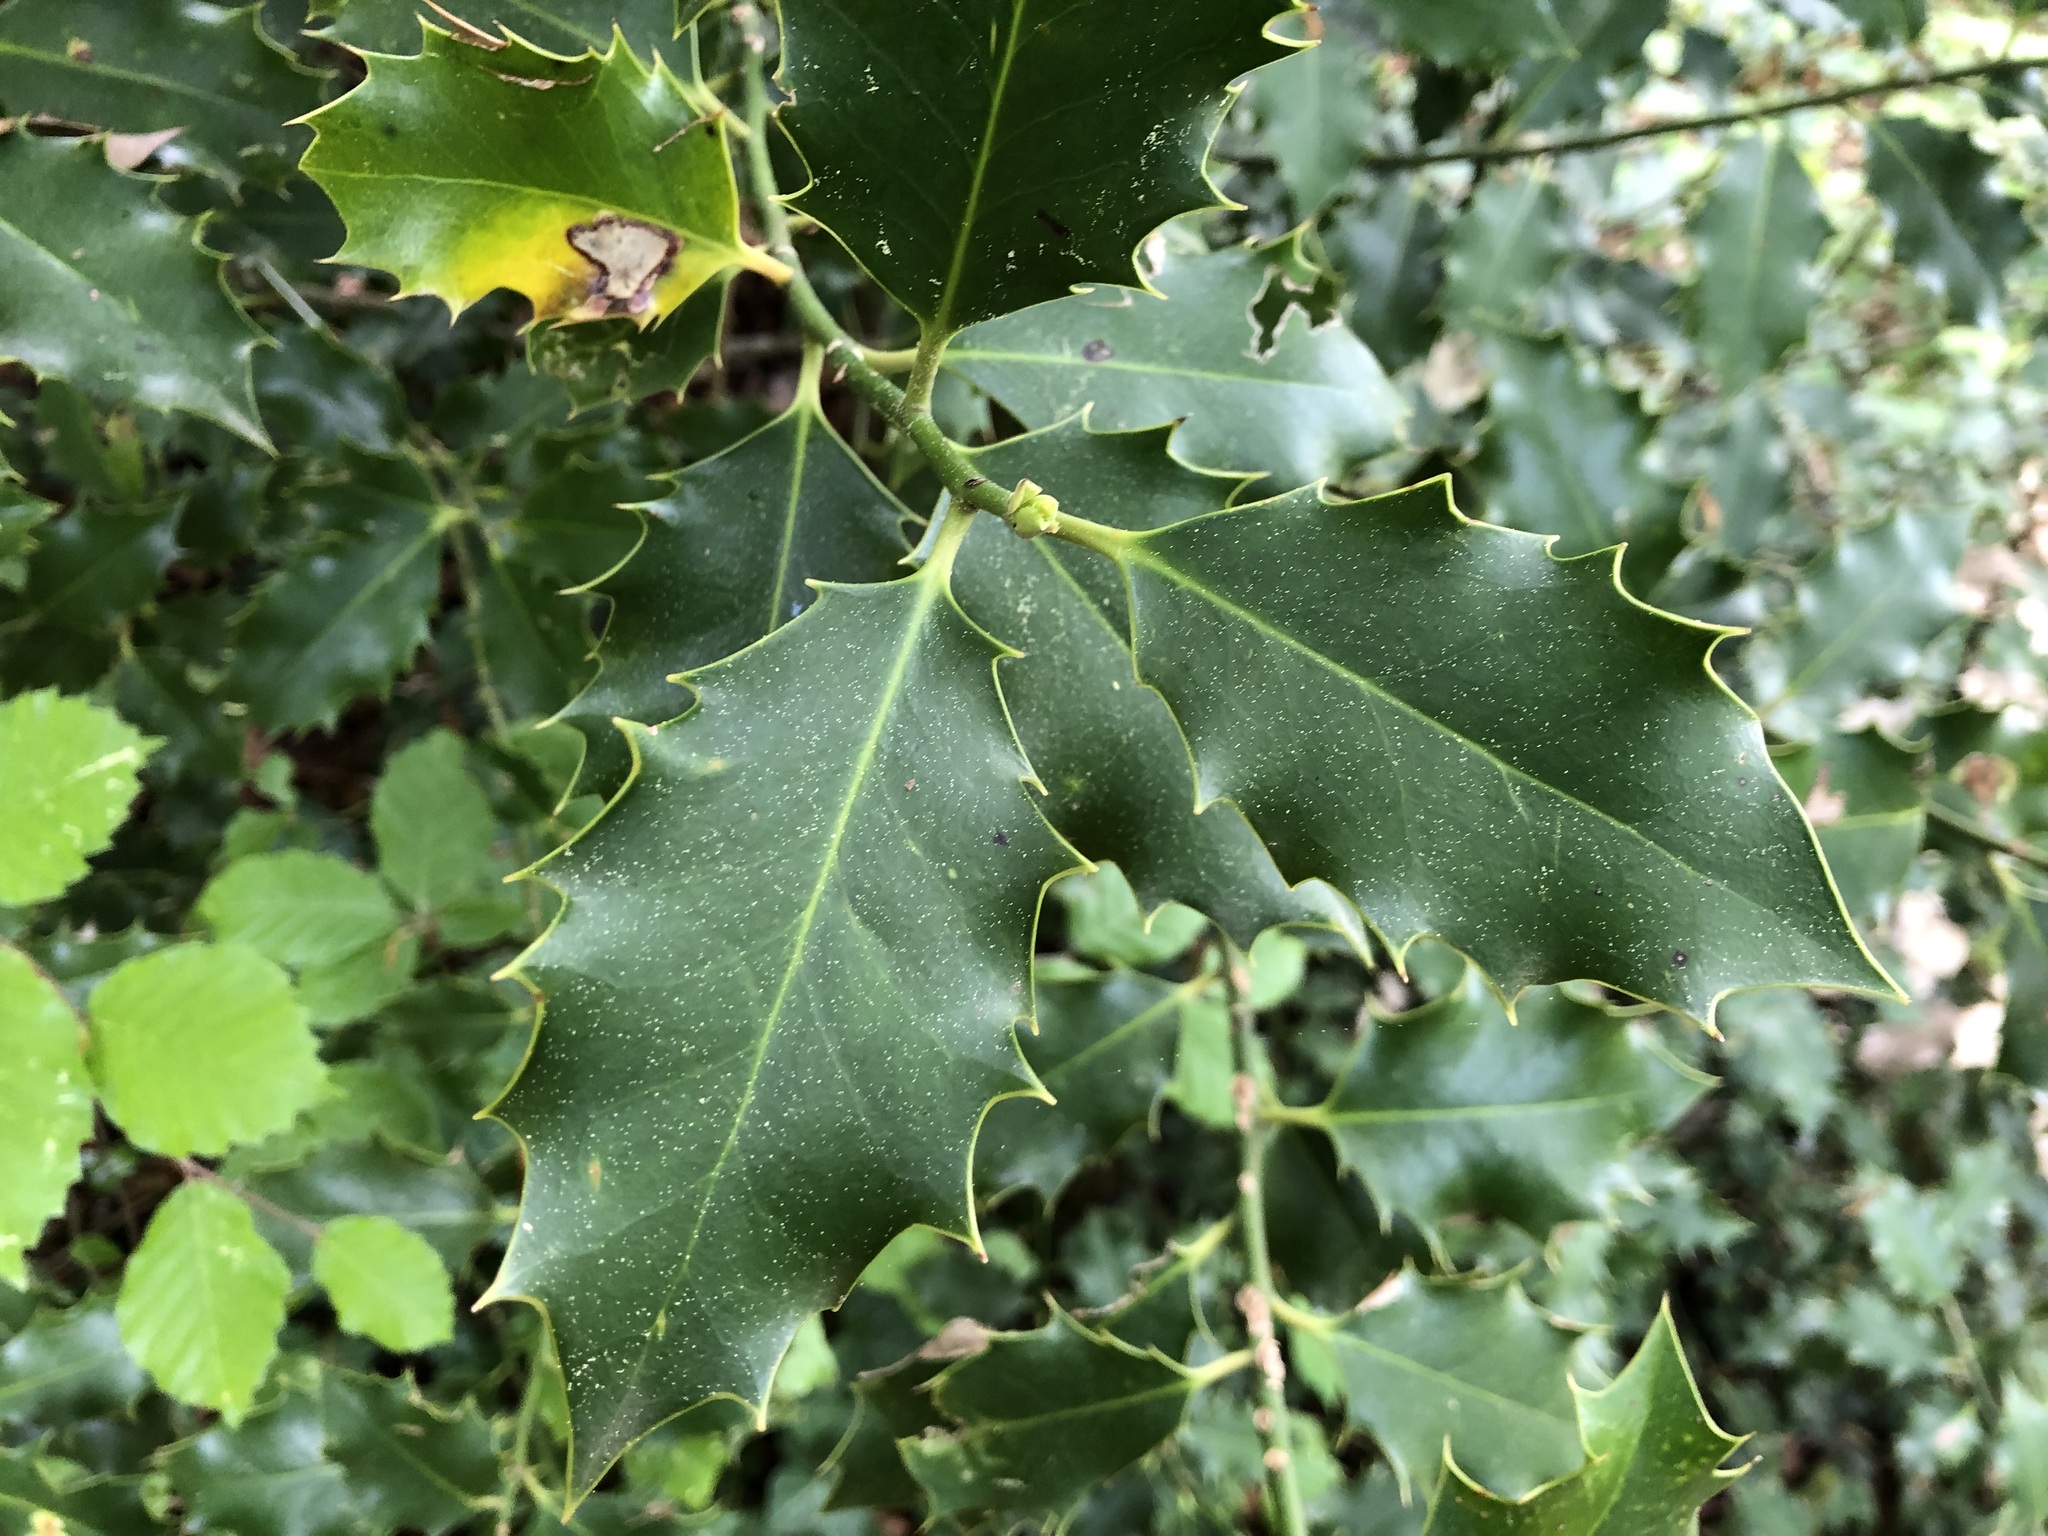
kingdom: Plantae
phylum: Tracheophyta
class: Magnoliopsida
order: Aquifoliales
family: Aquifoliaceae
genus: Ilex
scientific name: Ilex aquifolium
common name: English holly
